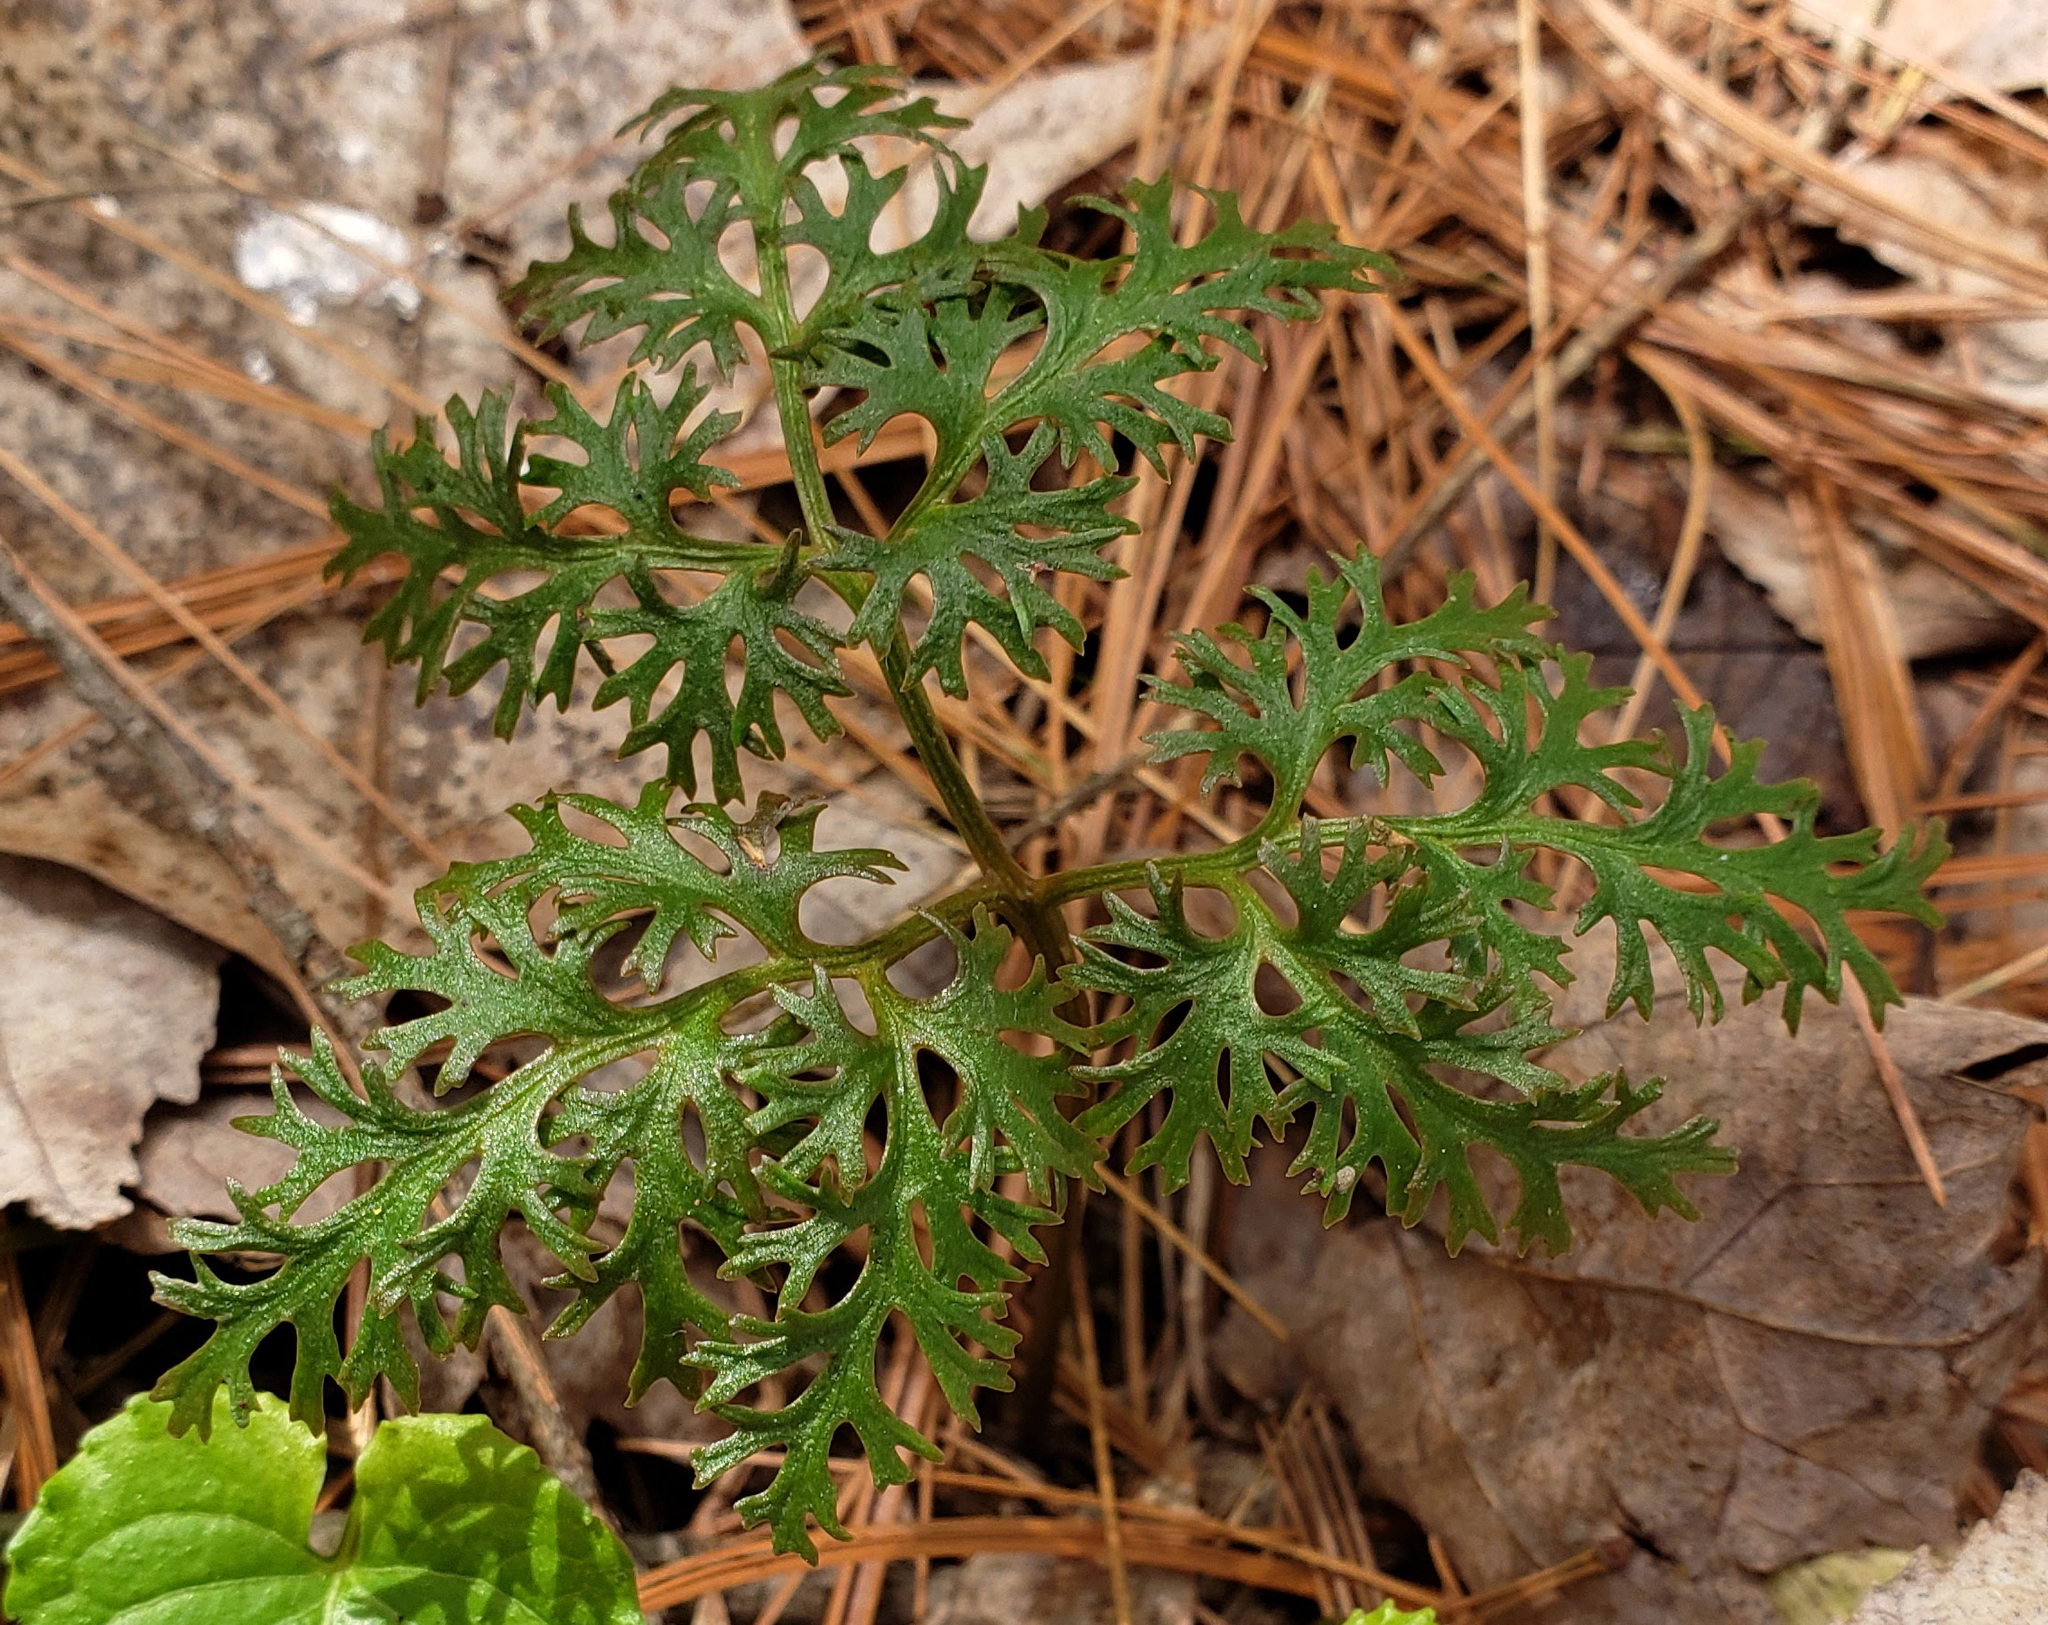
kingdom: Plantae
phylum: Tracheophyta
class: Polypodiopsida
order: Ophioglossales
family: Ophioglossaceae
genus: Sceptridium
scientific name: Sceptridium dissectum
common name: Cut-leaved grapefern
